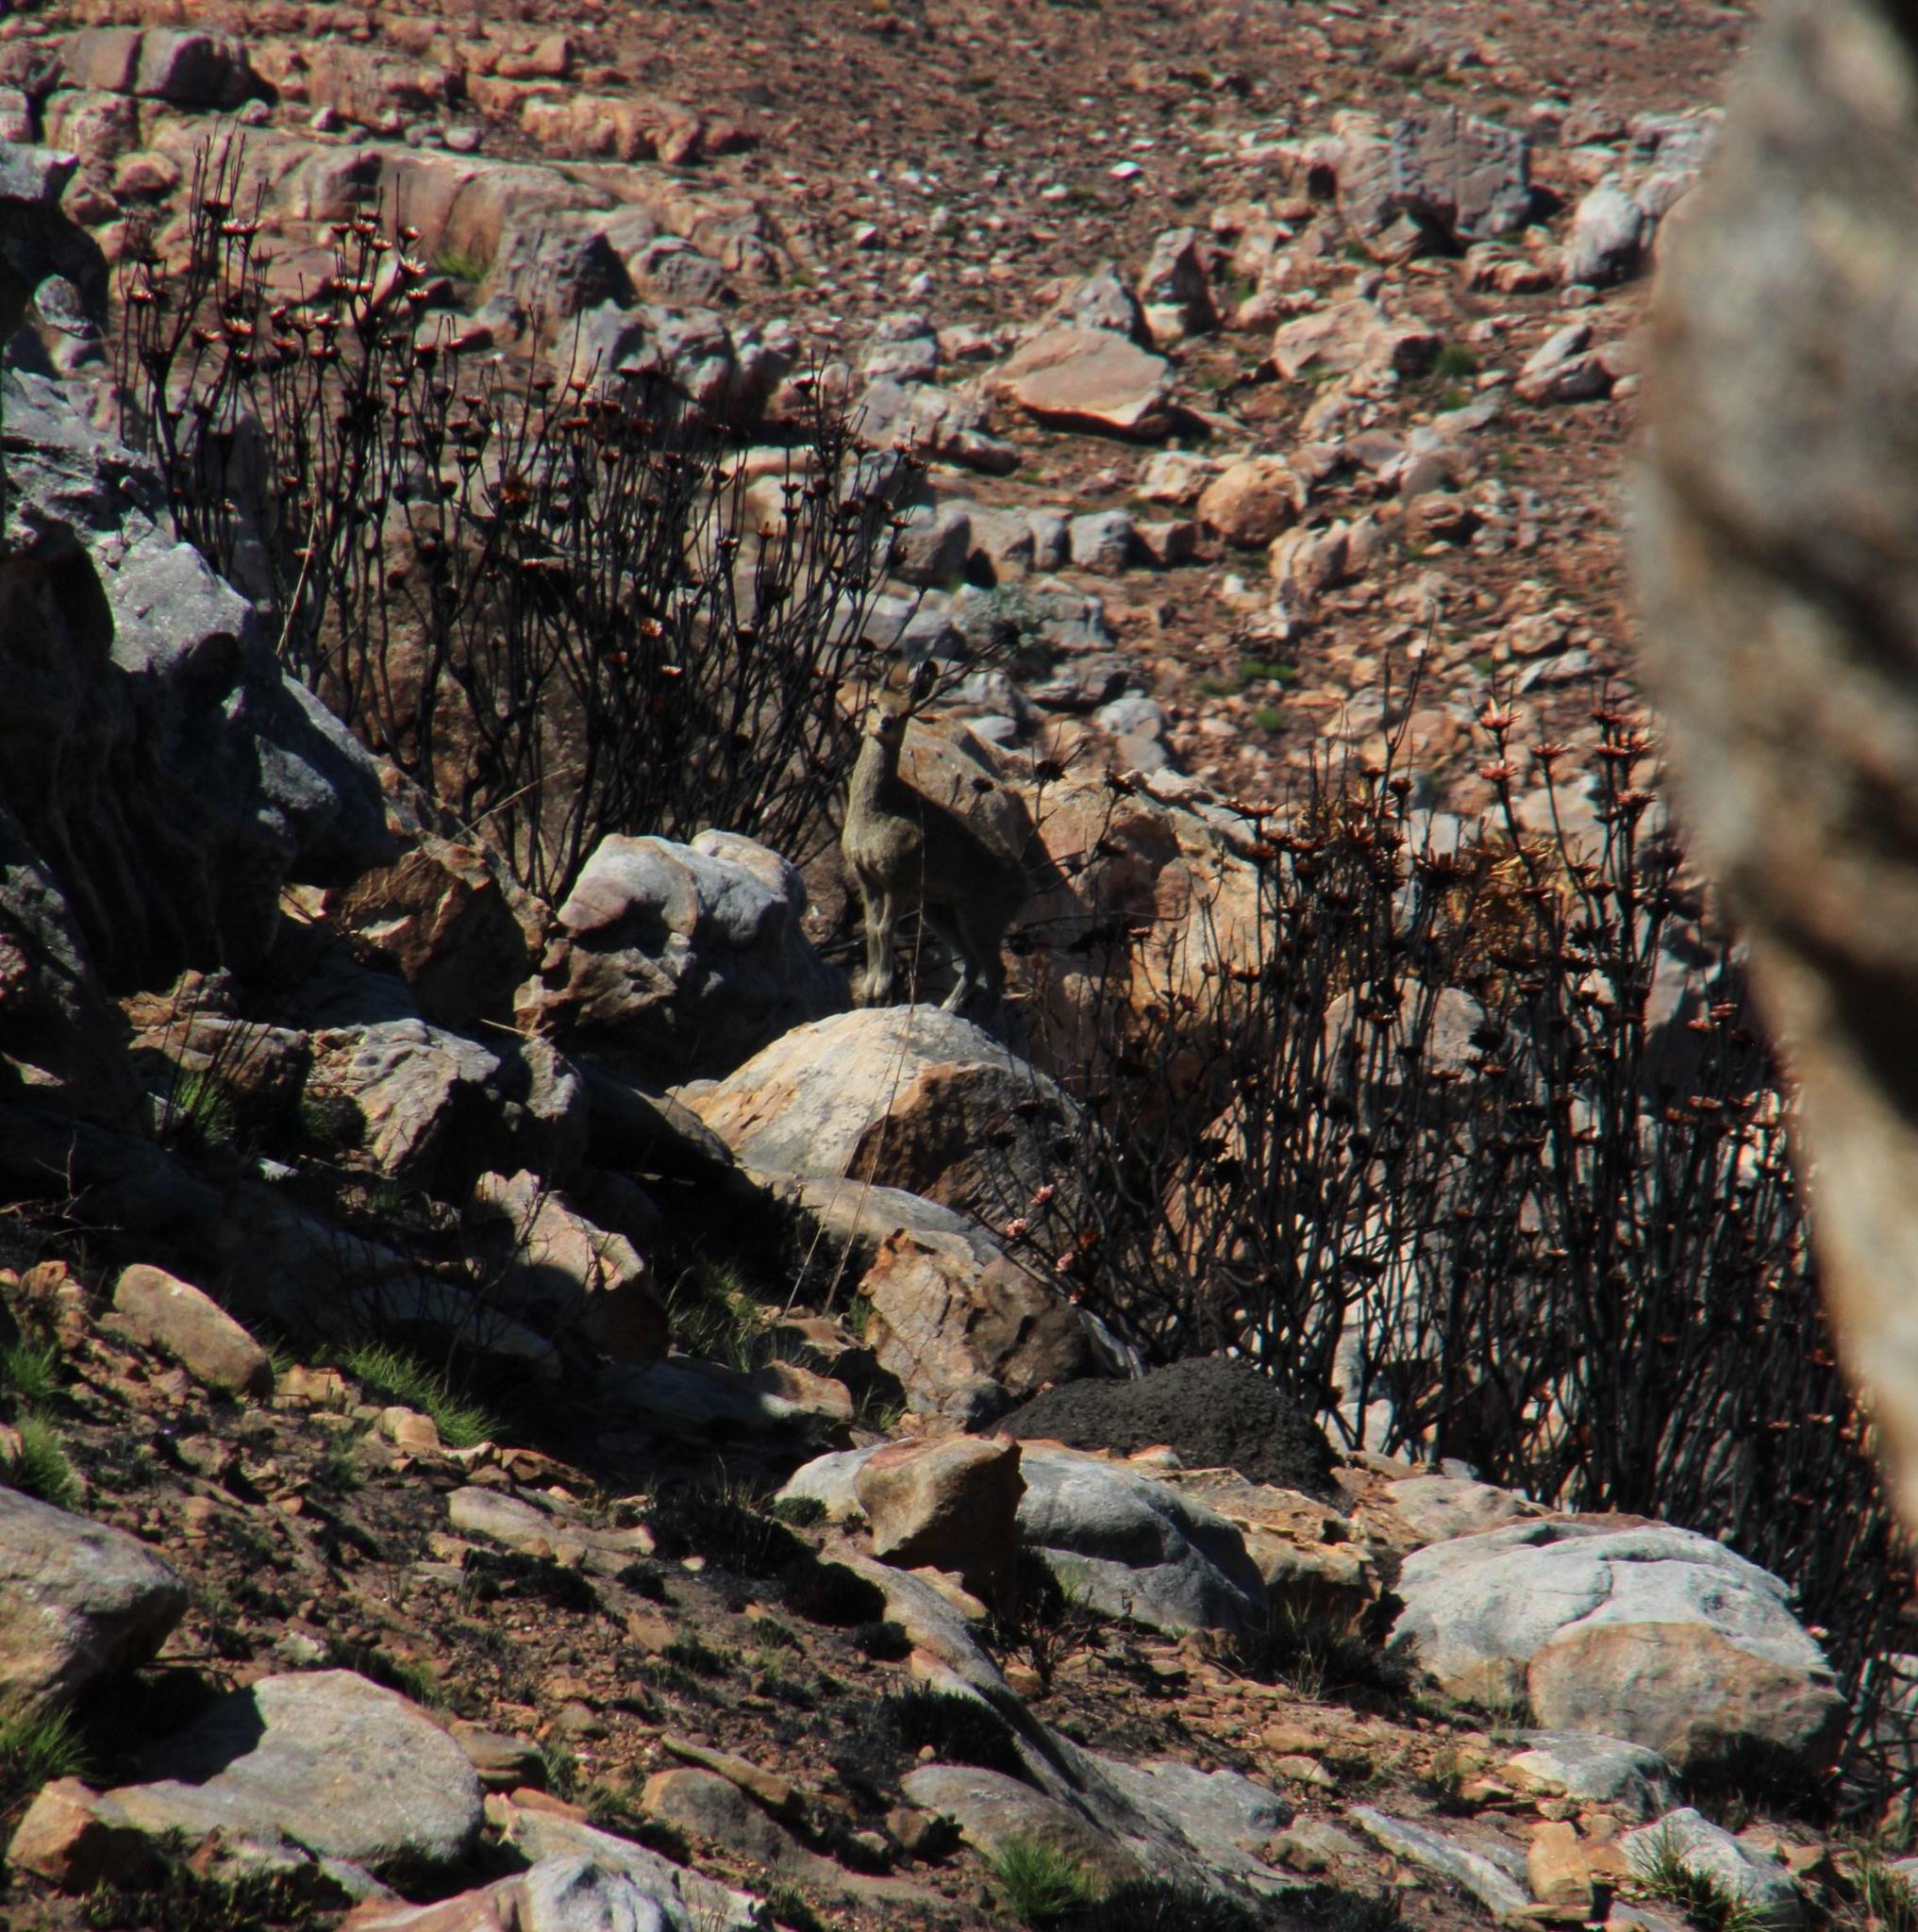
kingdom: Animalia
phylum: Chordata
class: Mammalia
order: Artiodactyla
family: Bovidae
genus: Oreotragus
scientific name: Oreotragus oreotragus
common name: Klipspringer
